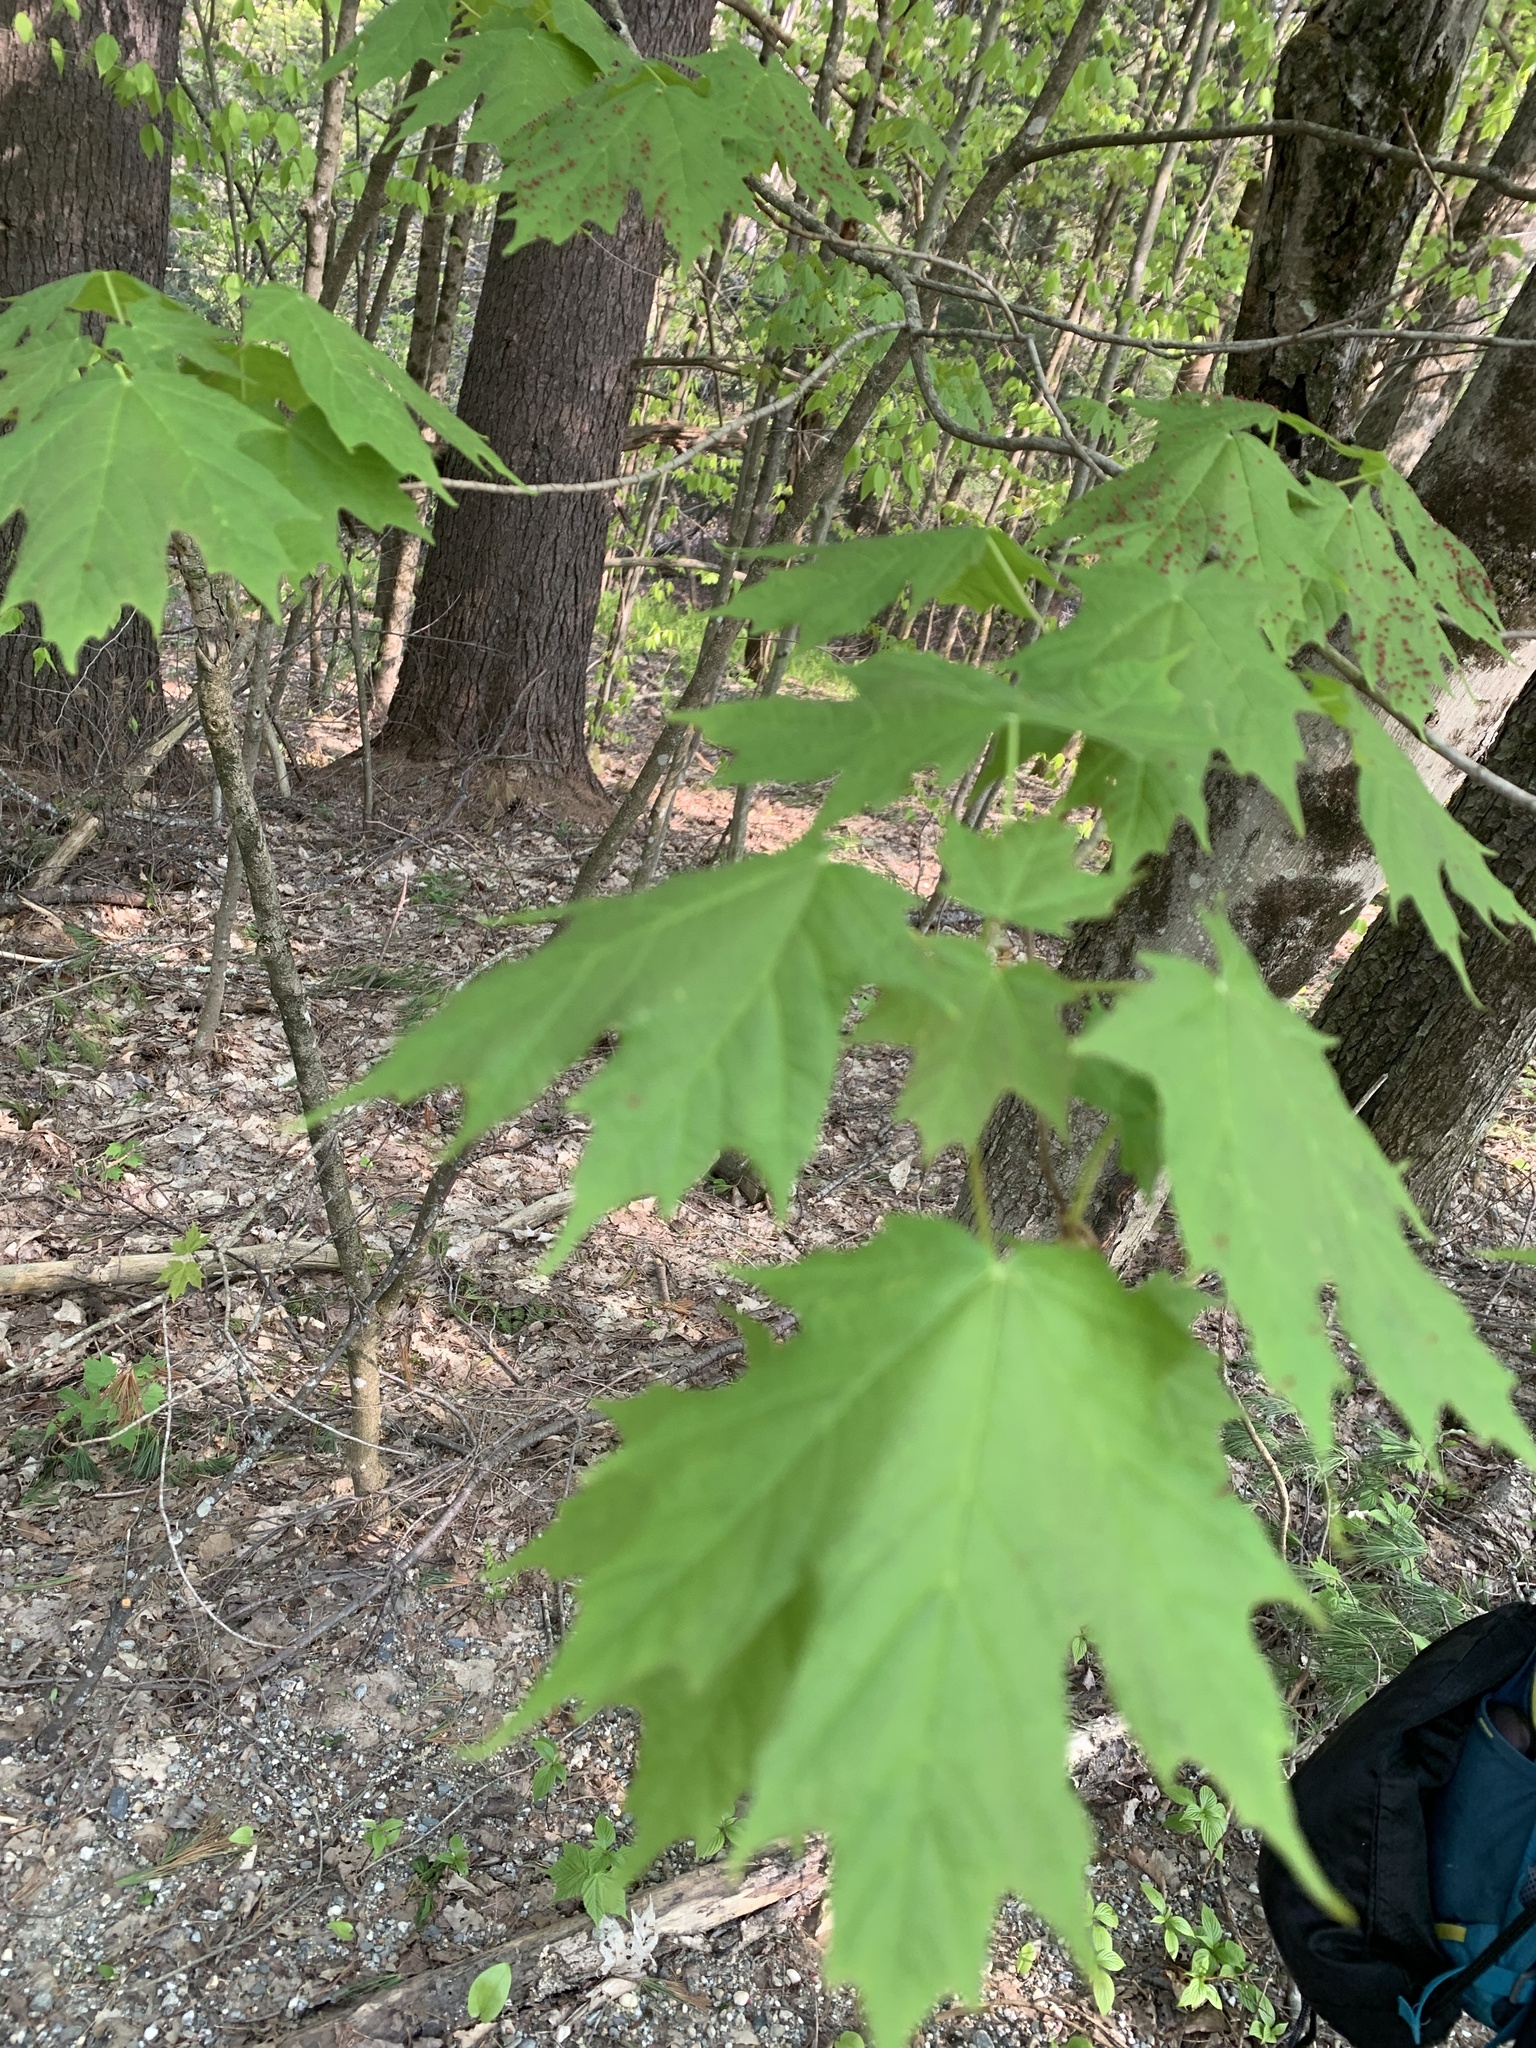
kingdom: Plantae
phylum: Tracheophyta
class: Magnoliopsida
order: Sapindales
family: Sapindaceae
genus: Acer
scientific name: Acer saccharum
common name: Sugar maple
